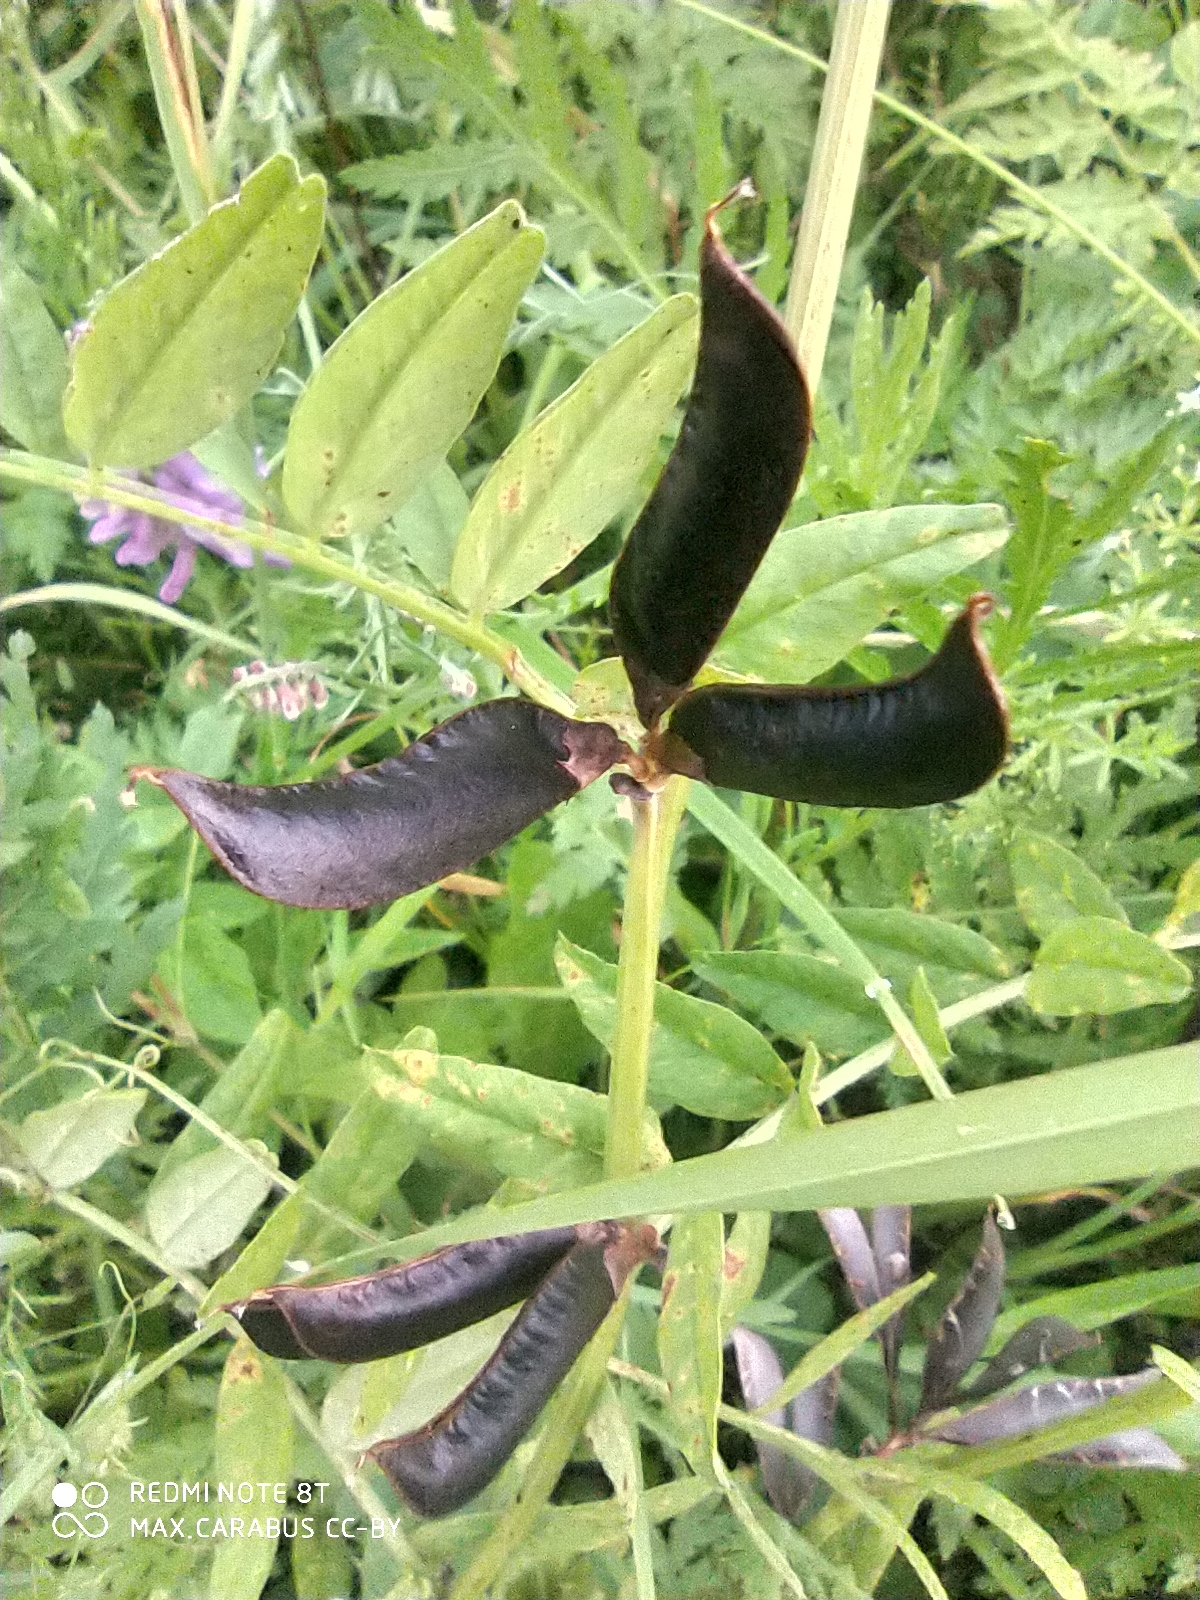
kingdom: Plantae
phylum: Tracheophyta
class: Magnoliopsida
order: Fabales
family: Fabaceae
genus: Vicia
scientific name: Vicia sepium
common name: Bush vetch
